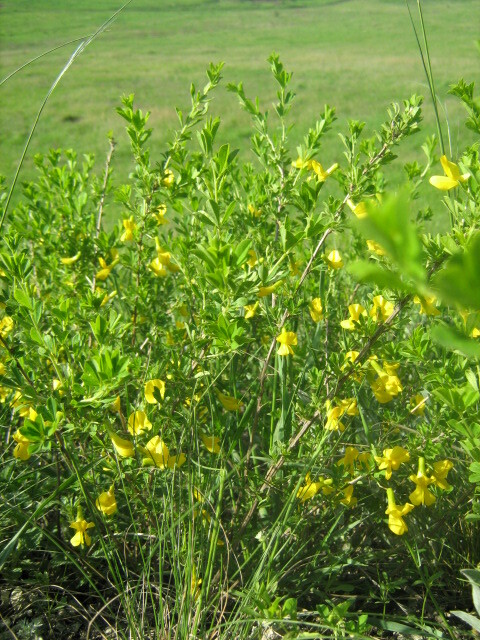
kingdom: Plantae
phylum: Tracheophyta
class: Magnoliopsida
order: Fabales
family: Fabaceae
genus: Caragana
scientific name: Caragana frutex
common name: Russian peashrub
